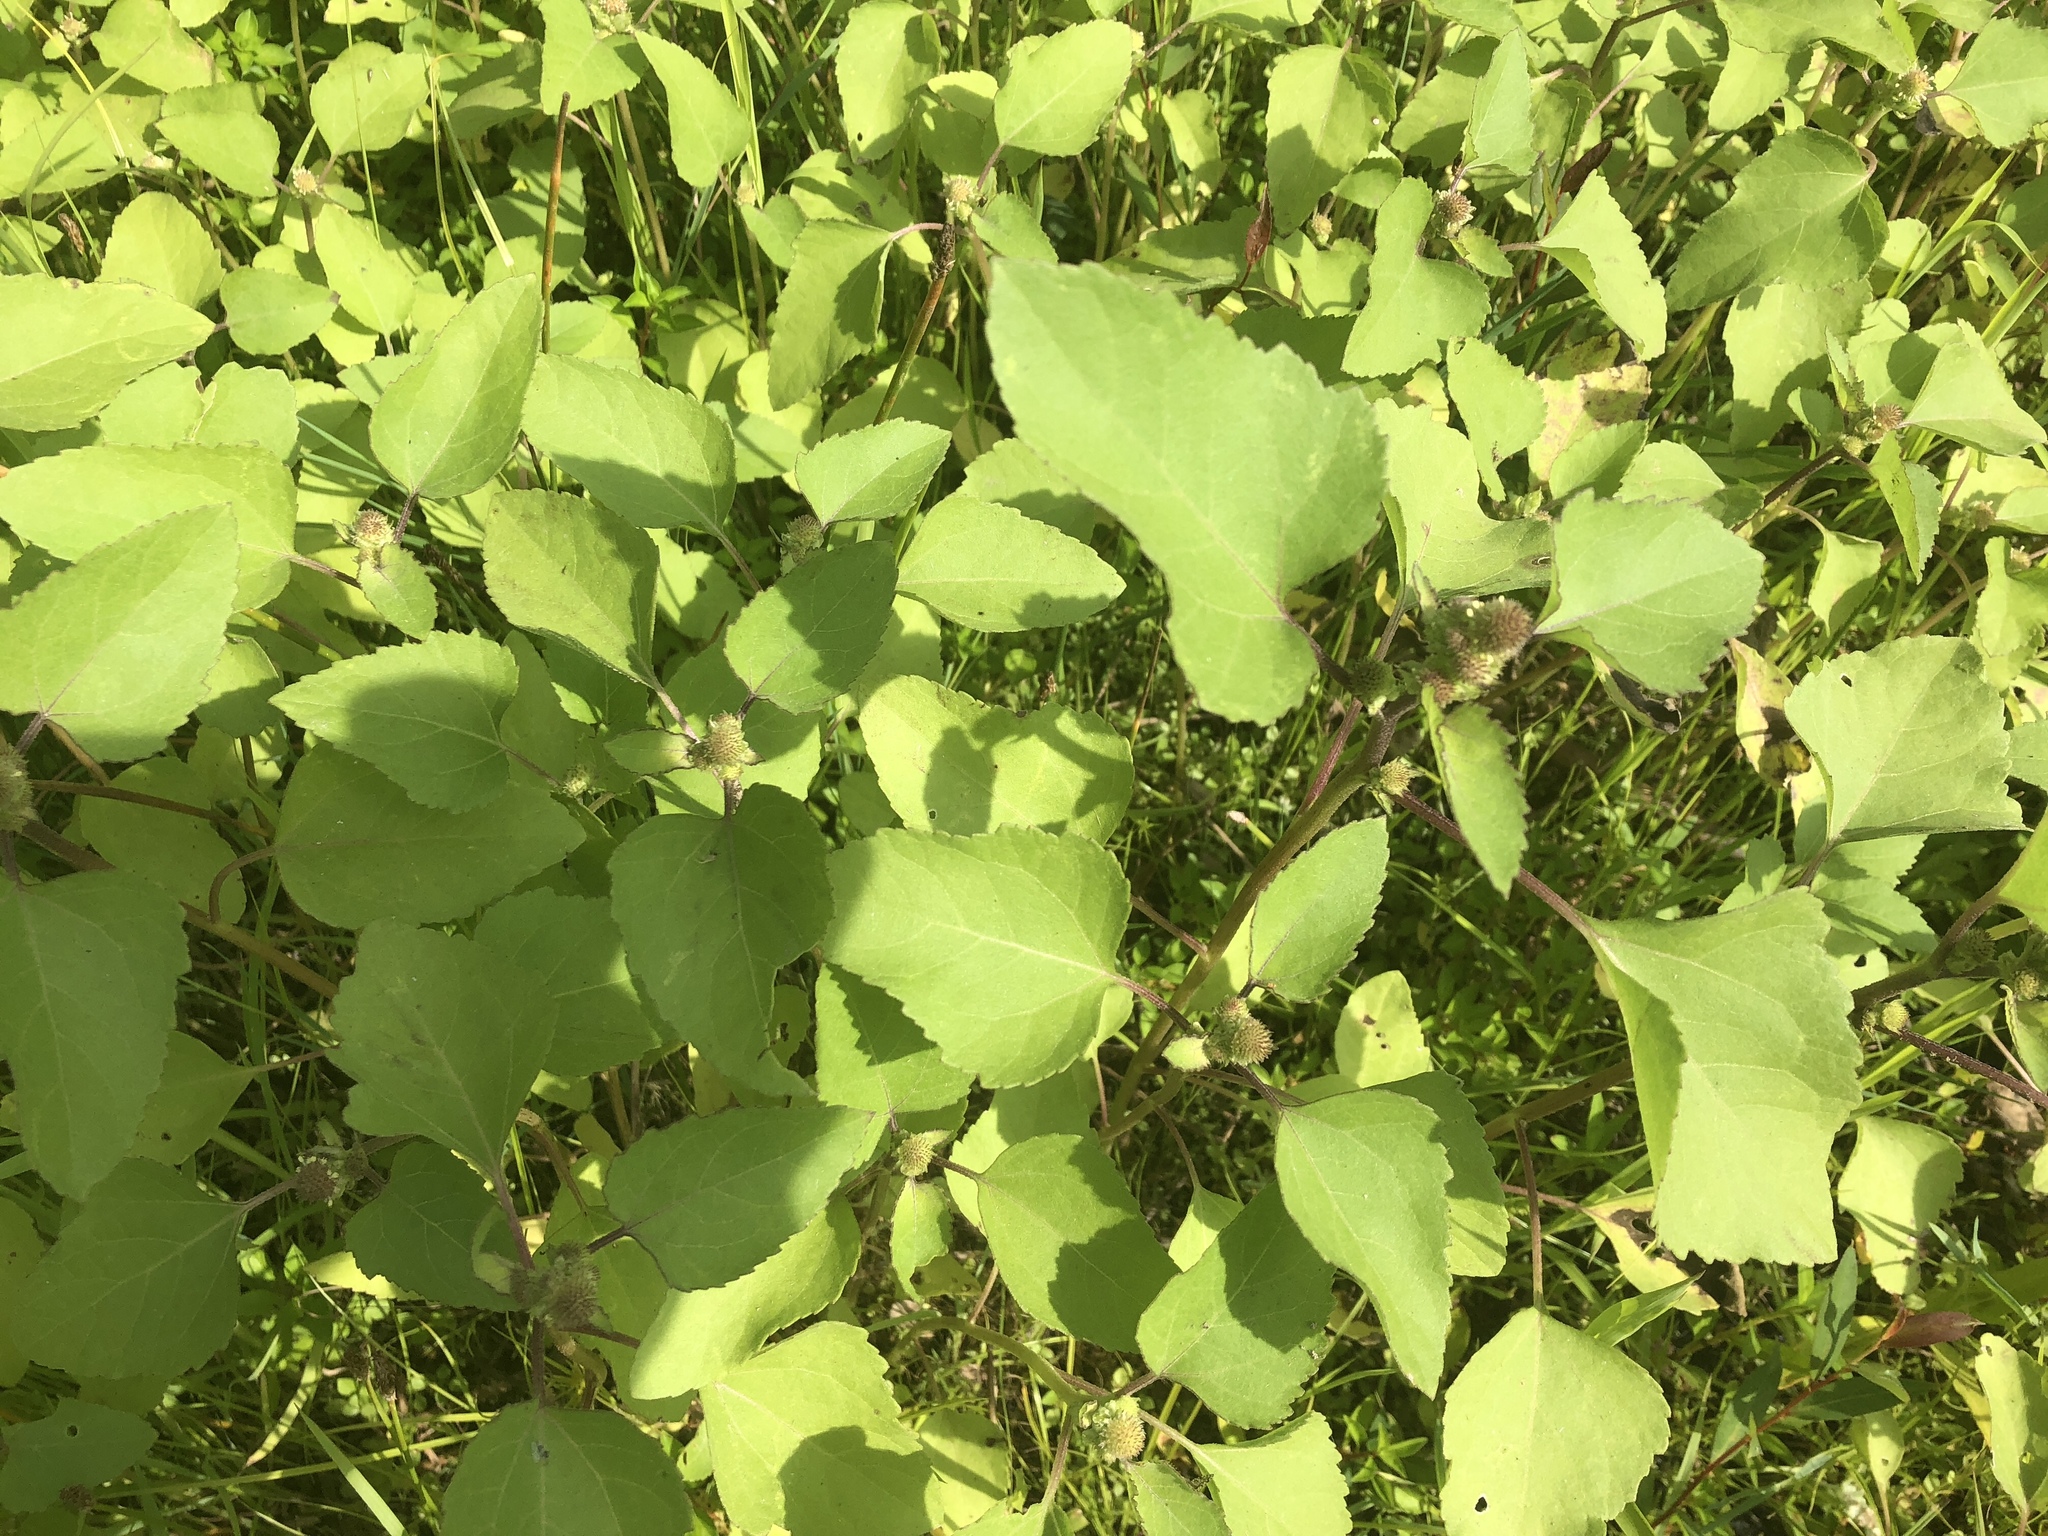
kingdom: Plantae
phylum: Tracheophyta
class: Magnoliopsida
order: Asterales
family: Asteraceae
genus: Xanthium
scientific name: Xanthium strumarium
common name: Rough cocklebur
